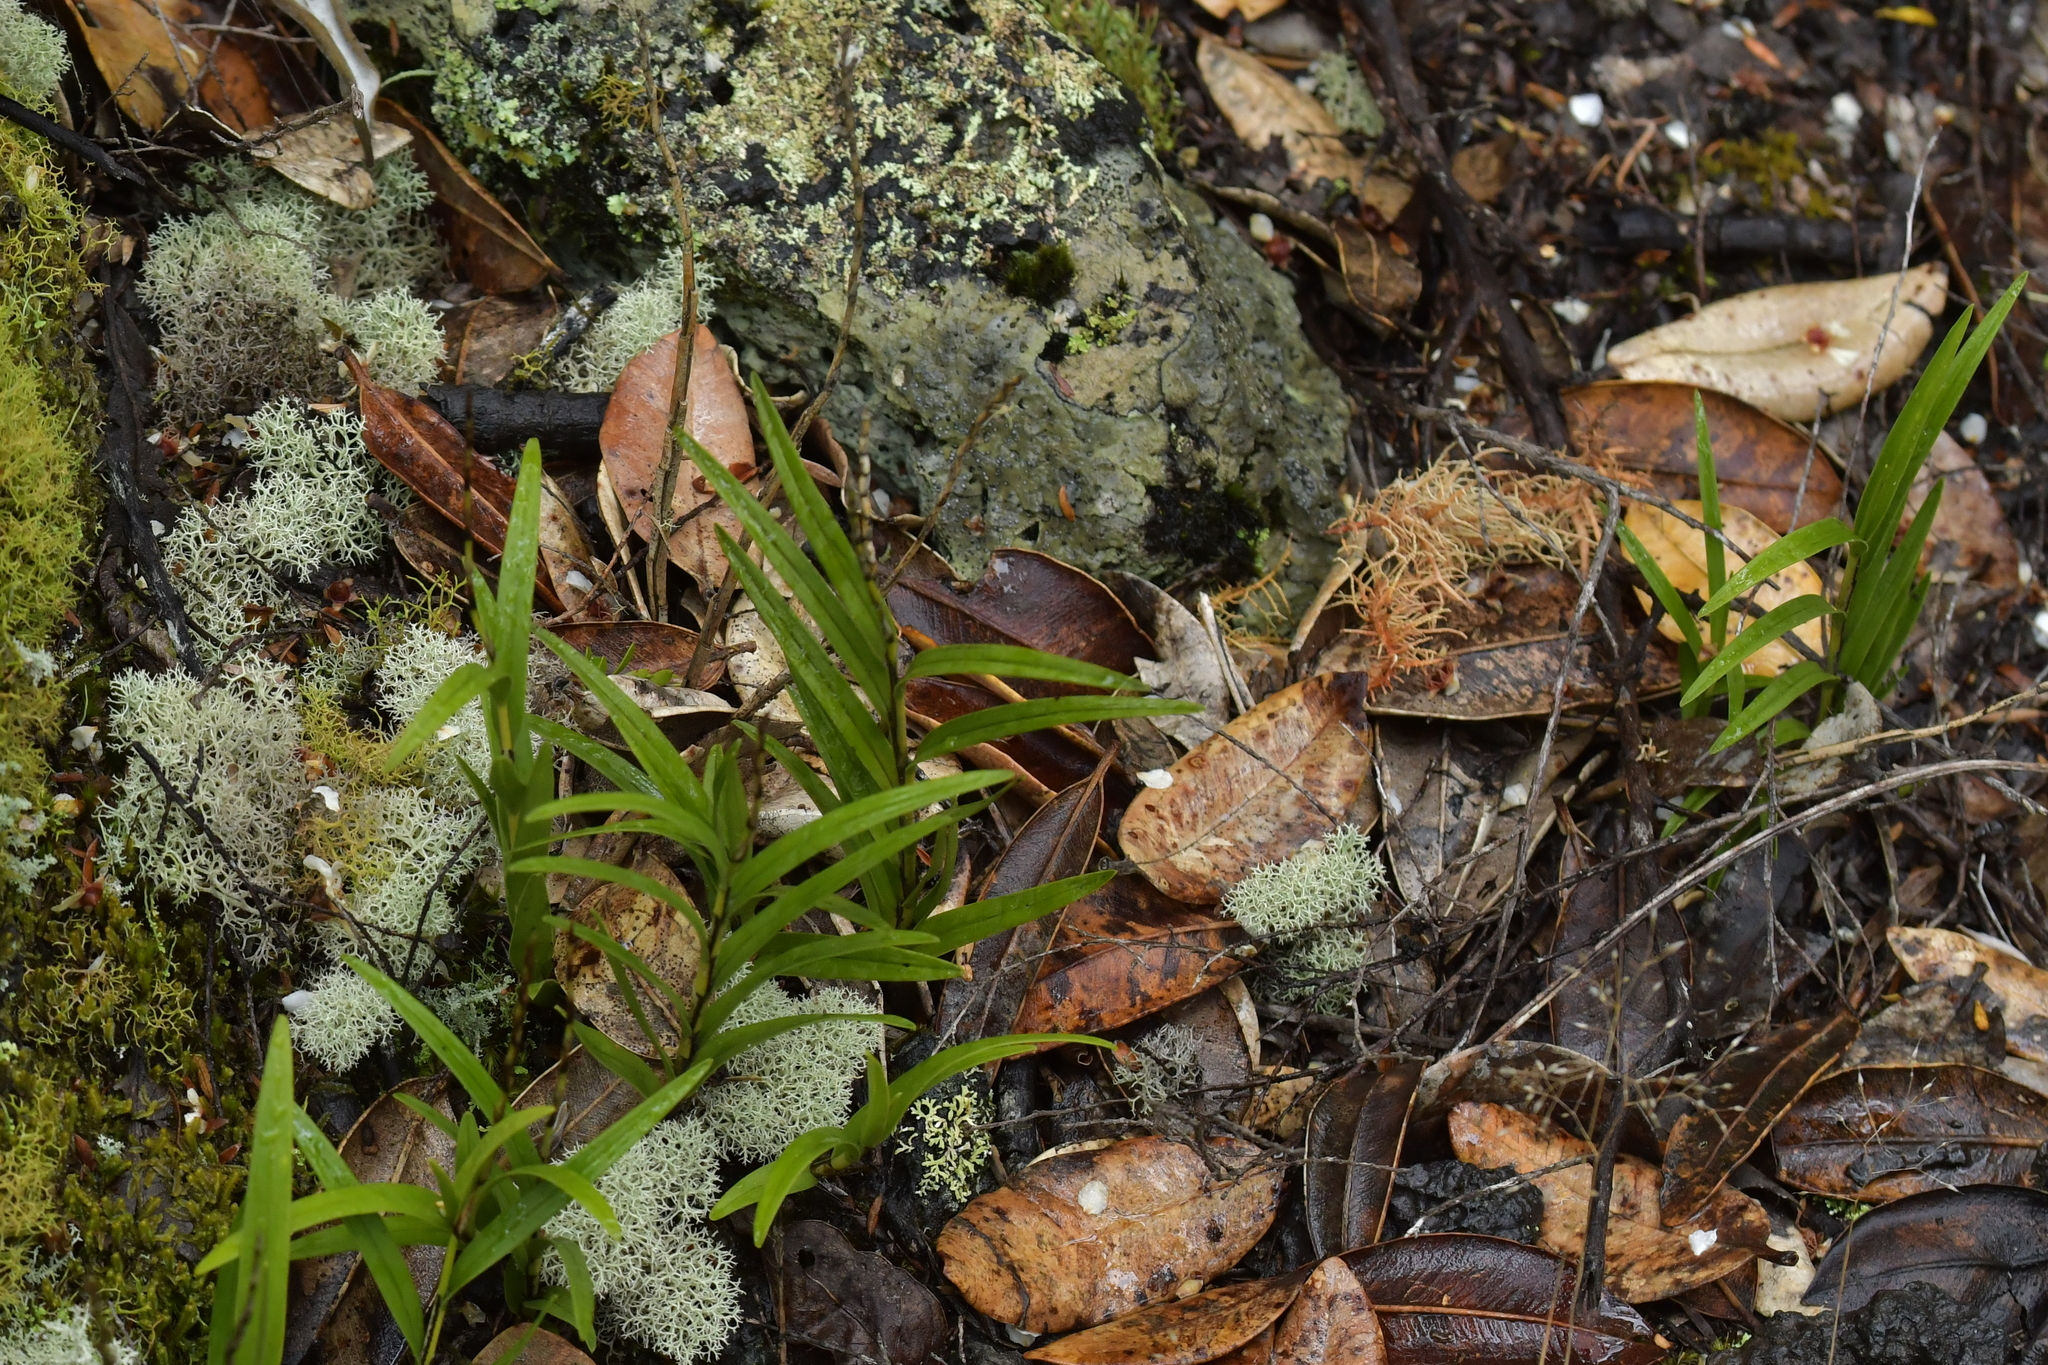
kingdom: Plantae
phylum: Tracheophyta
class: Liliopsida
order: Asparagales
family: Orchidaceae
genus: Dendrobium
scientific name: Dendrobium cunninghamii
